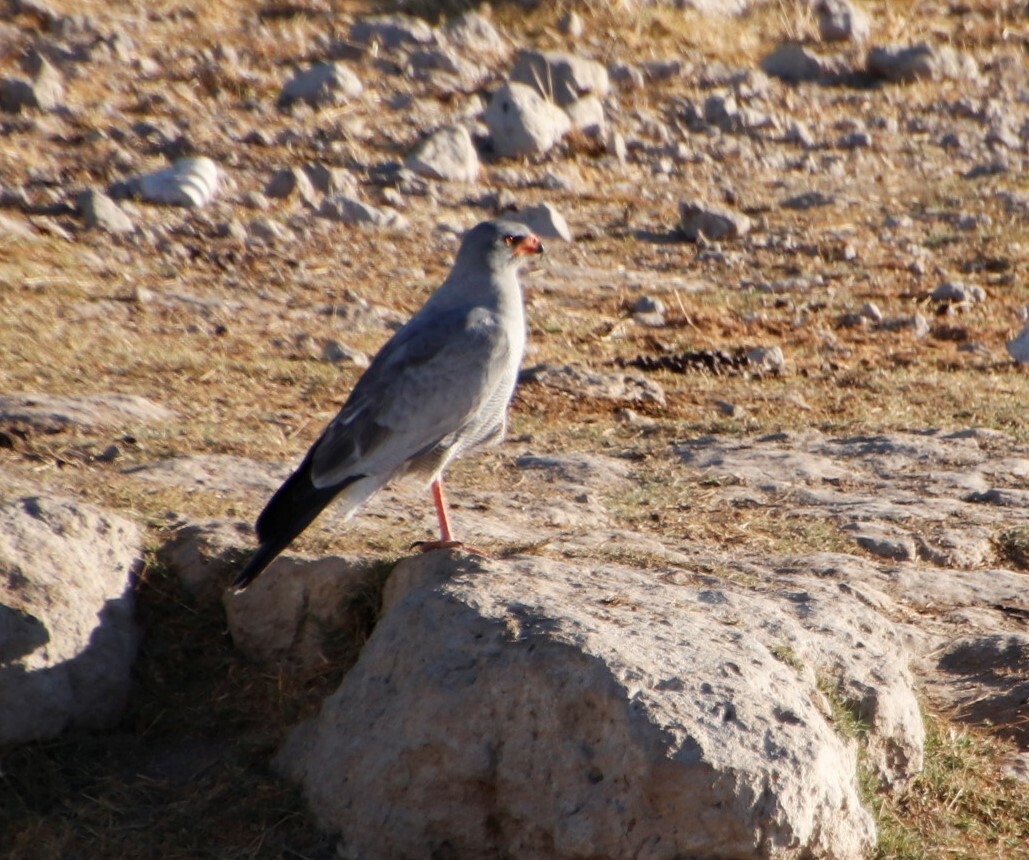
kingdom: Animalia
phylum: Chordata
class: Aves
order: Accipitriformes
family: Accipitridae
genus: Melierax
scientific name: Melierax canorus
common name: Pale chanting-goshawk
